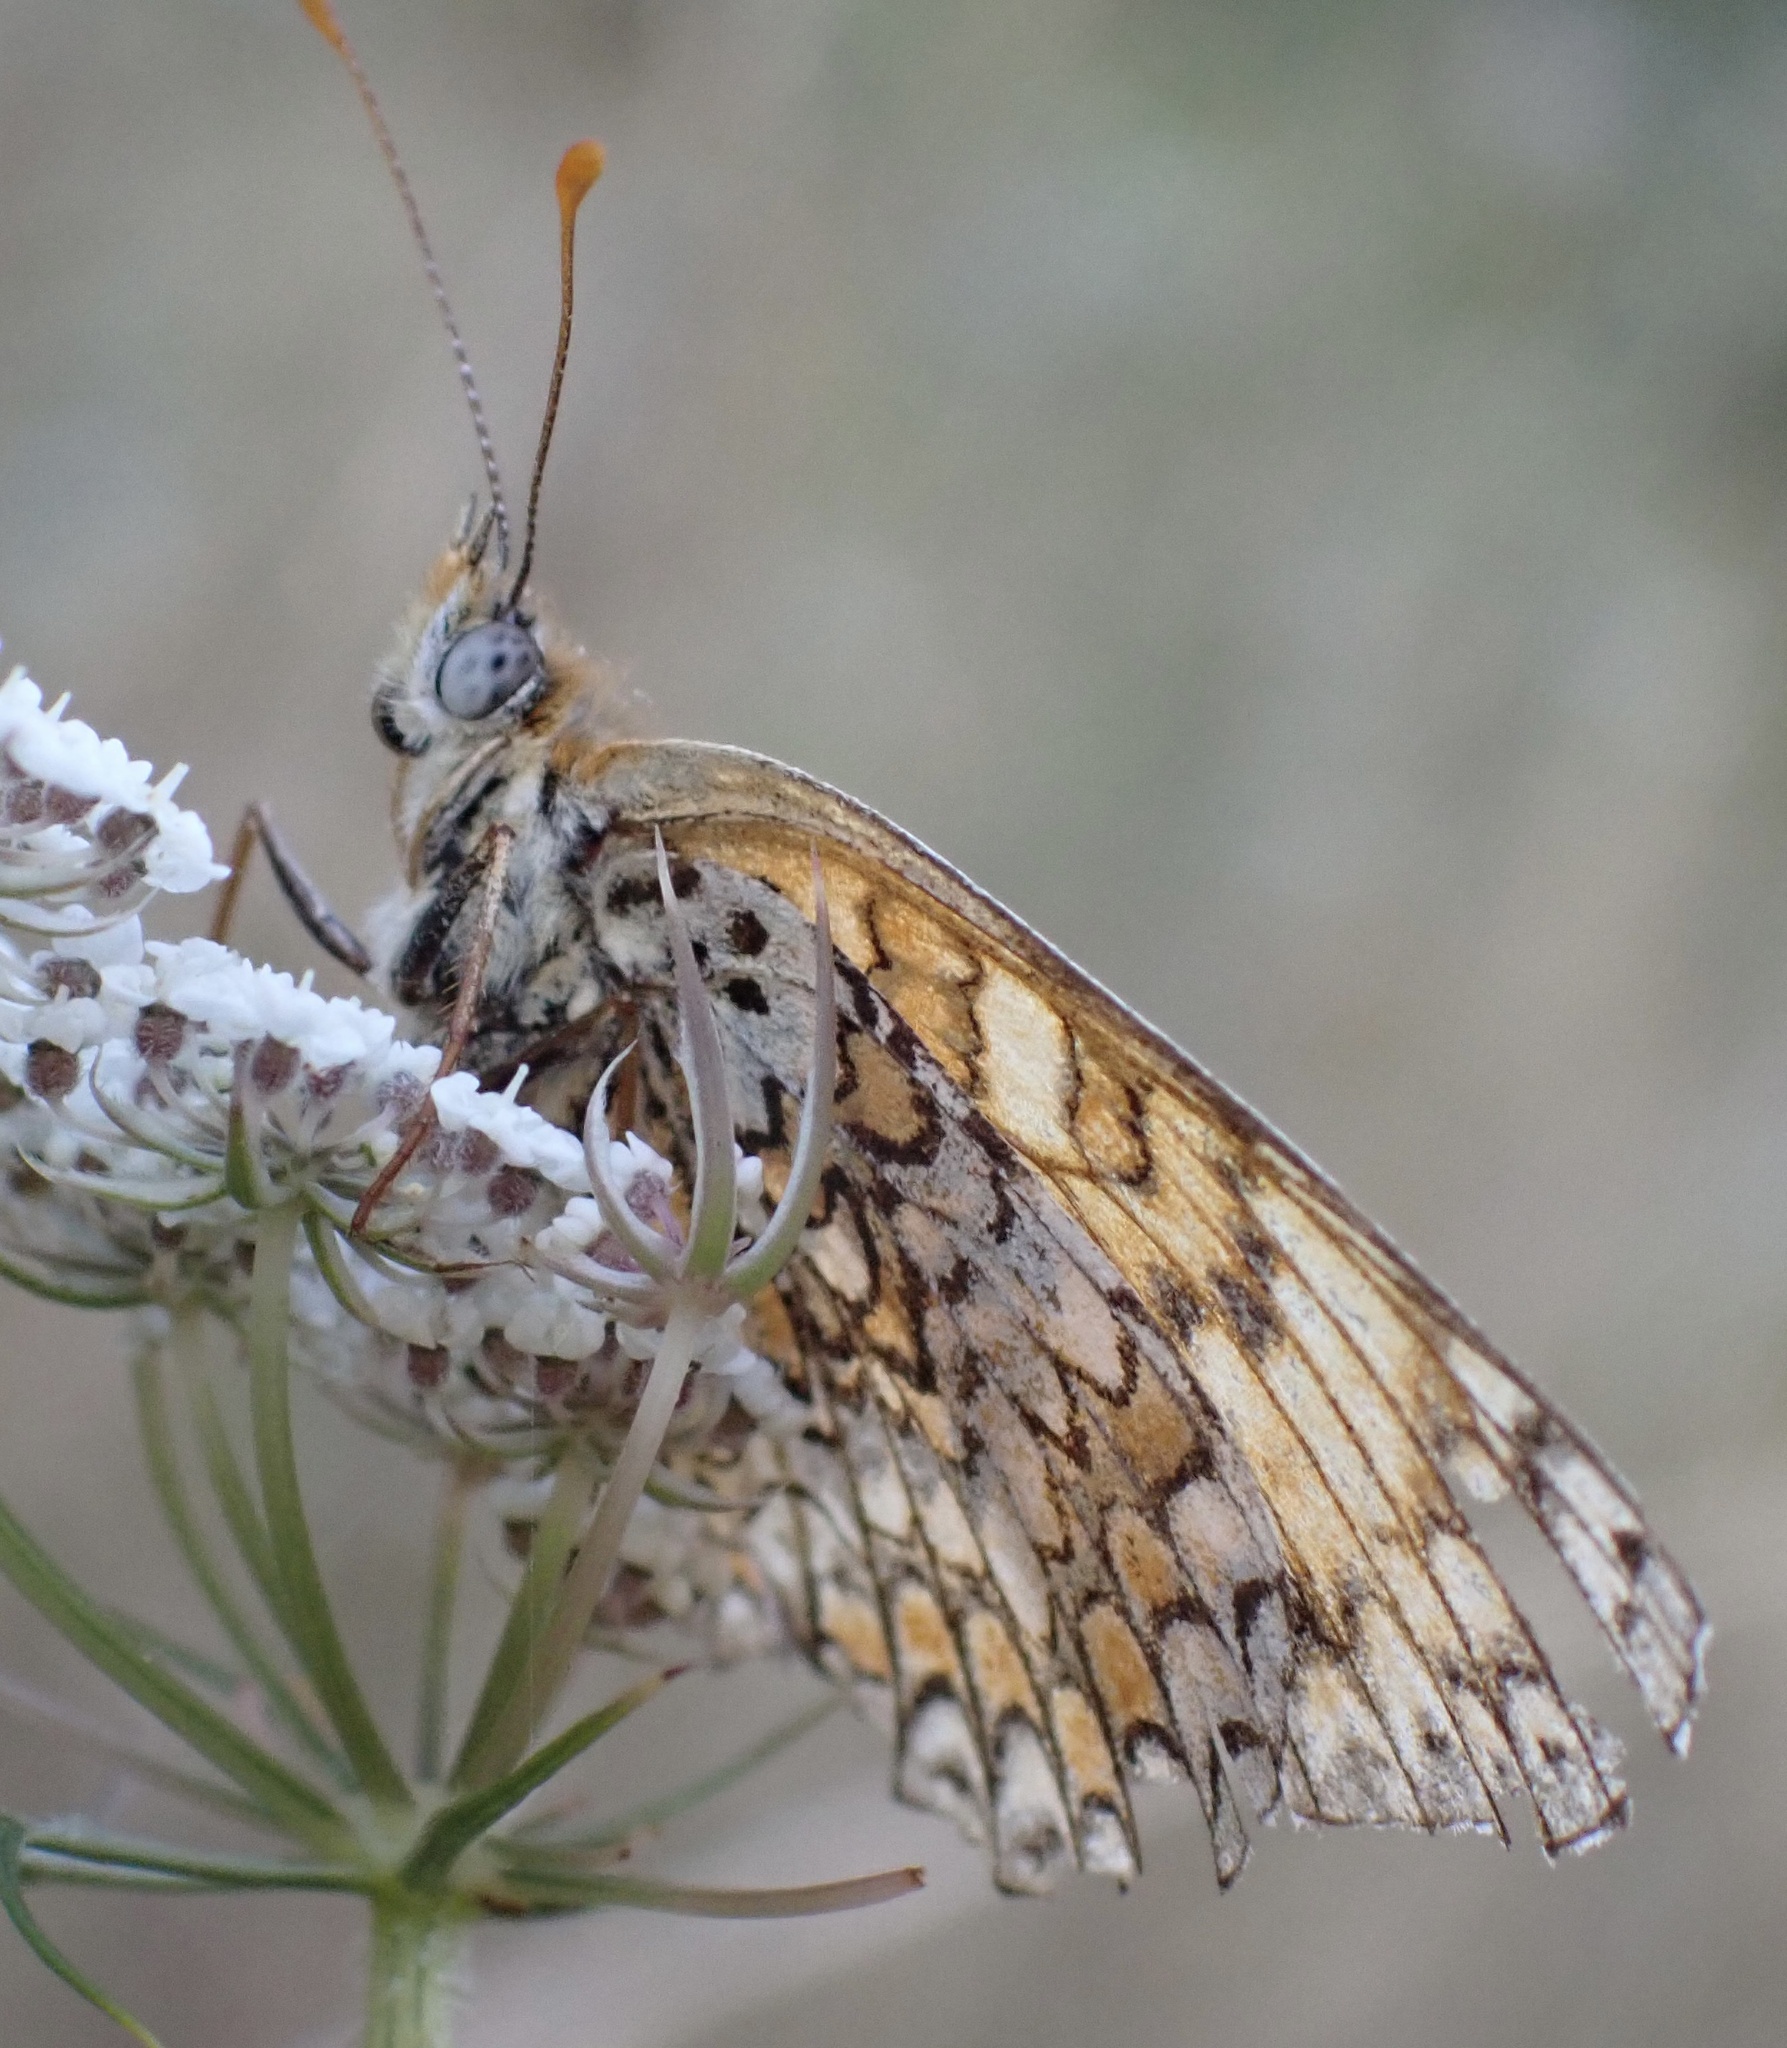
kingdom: Animalia
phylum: Arthropoda
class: Insecta
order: Lepidoptera
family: Nymphalidae
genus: Melitaea
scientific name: Melitaea phoebe
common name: Knapweed fritillary
